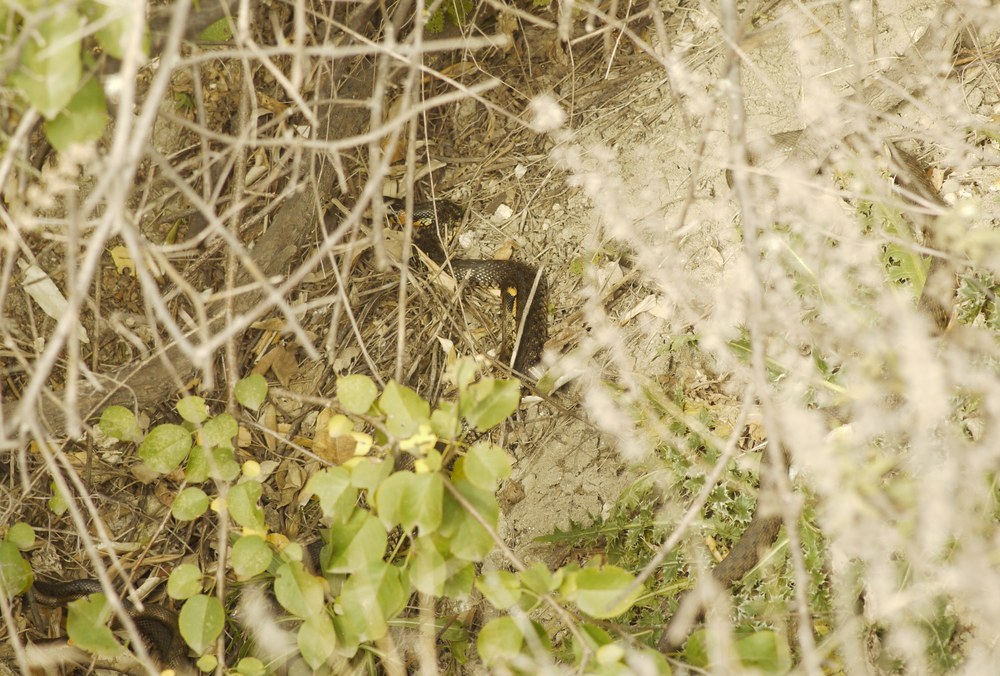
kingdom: Animalia
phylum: Chordata
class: Squamata
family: Colubridae
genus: Natrix
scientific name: Natrix natrix
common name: Grass snake
